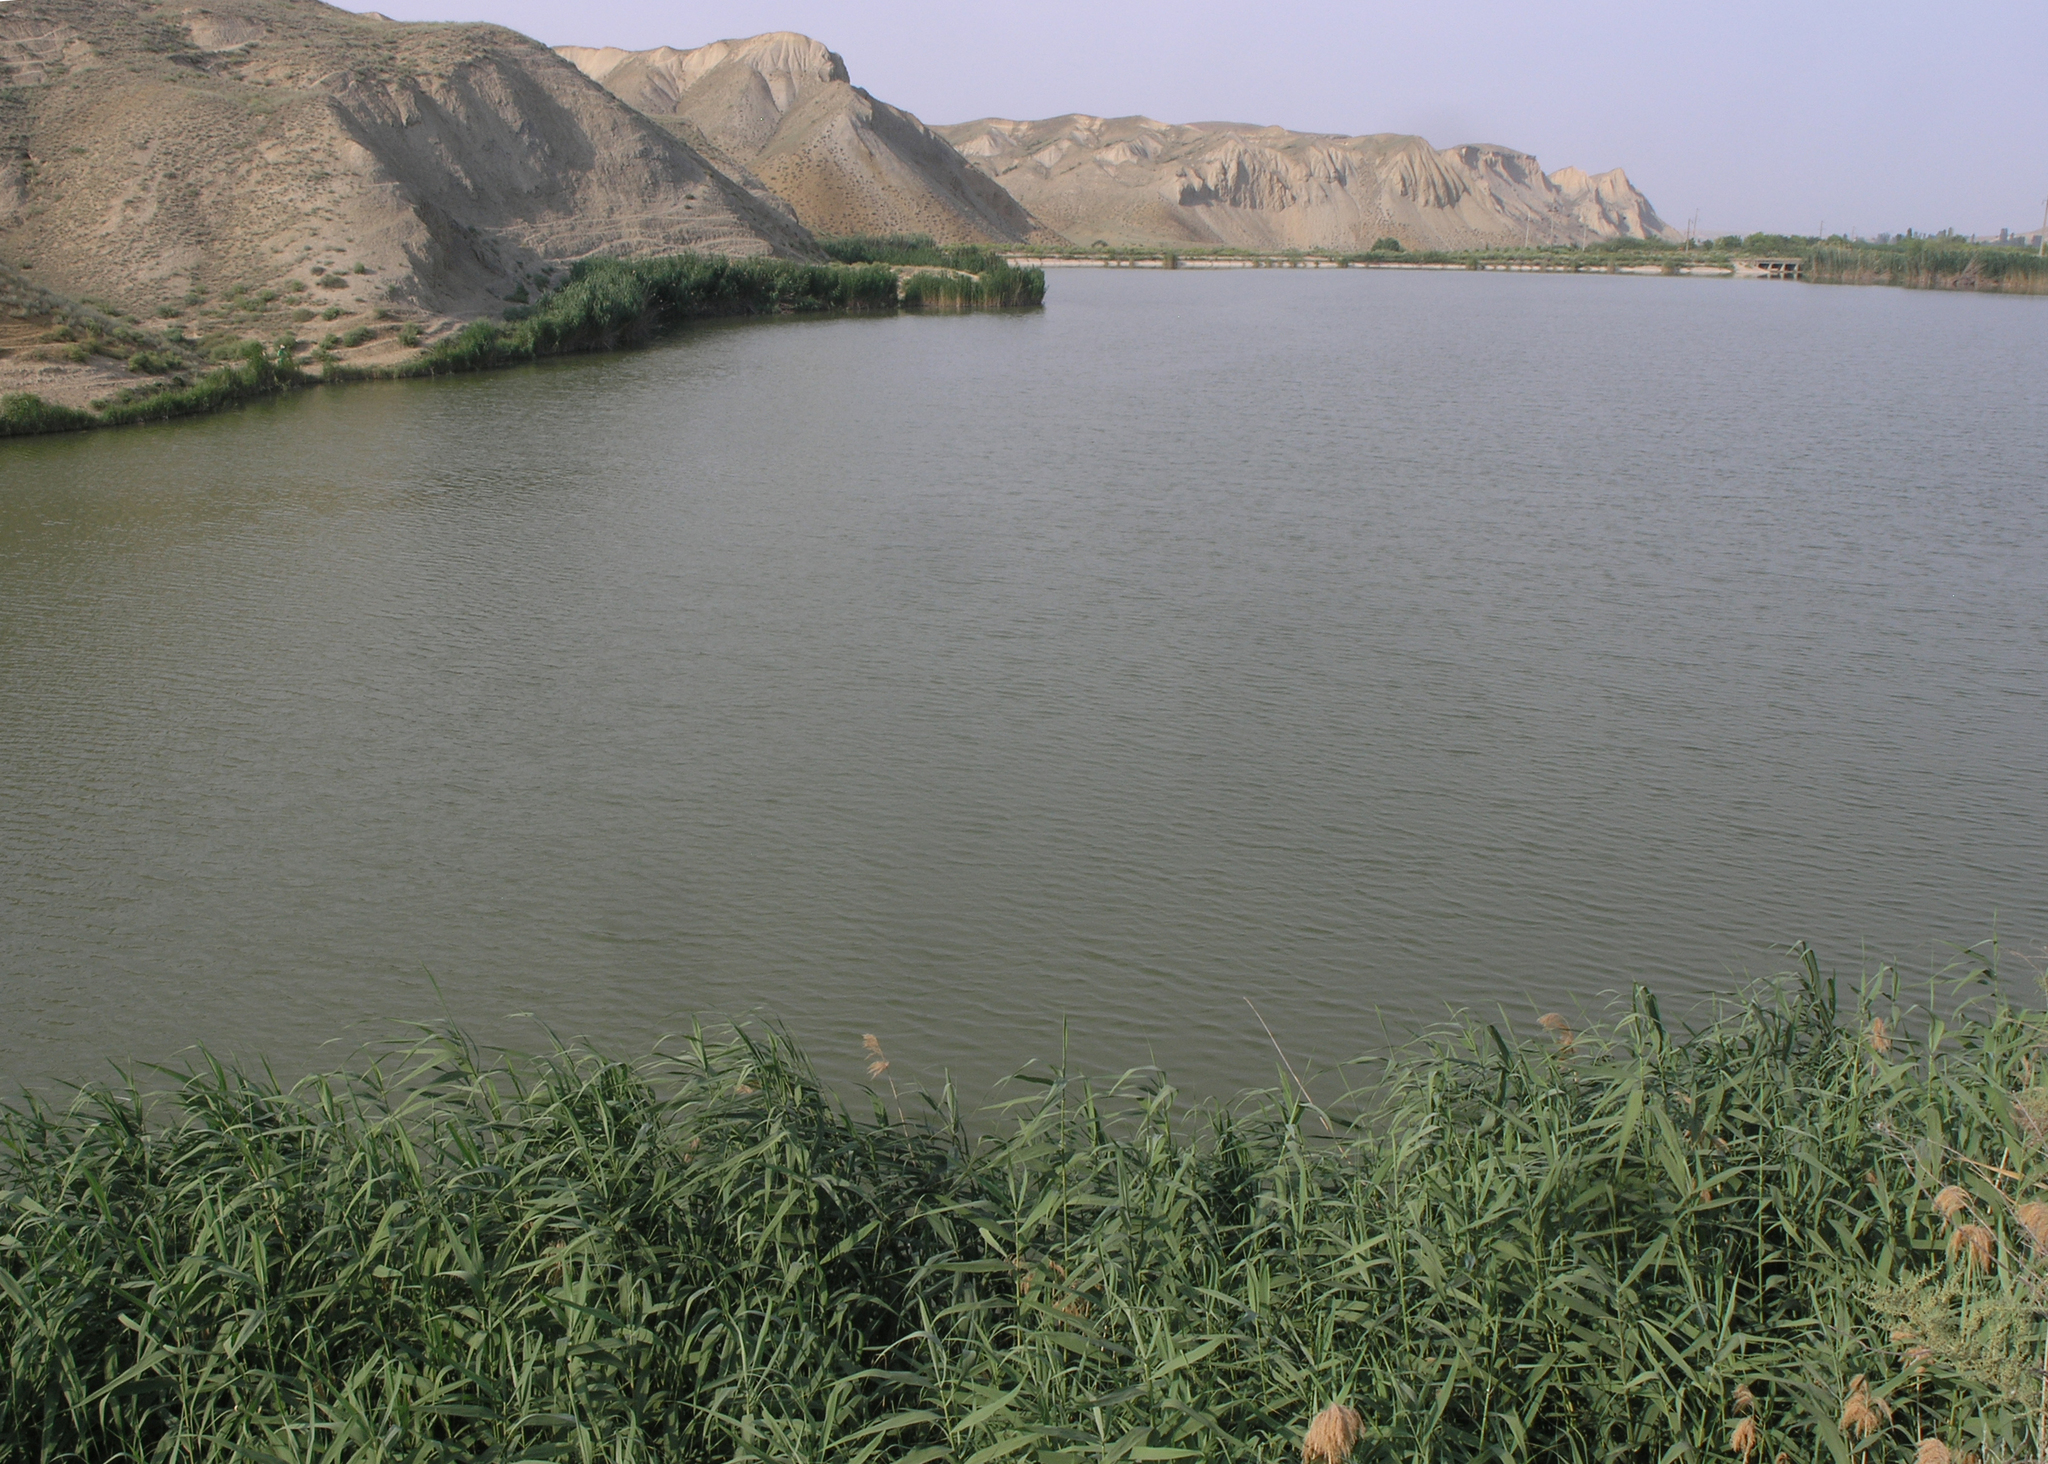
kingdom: Plantae
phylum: Tracheophyta
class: Liliopsida
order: Poales
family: Poaceae
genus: Phragmites
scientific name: Phragmites australis
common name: Common reed
